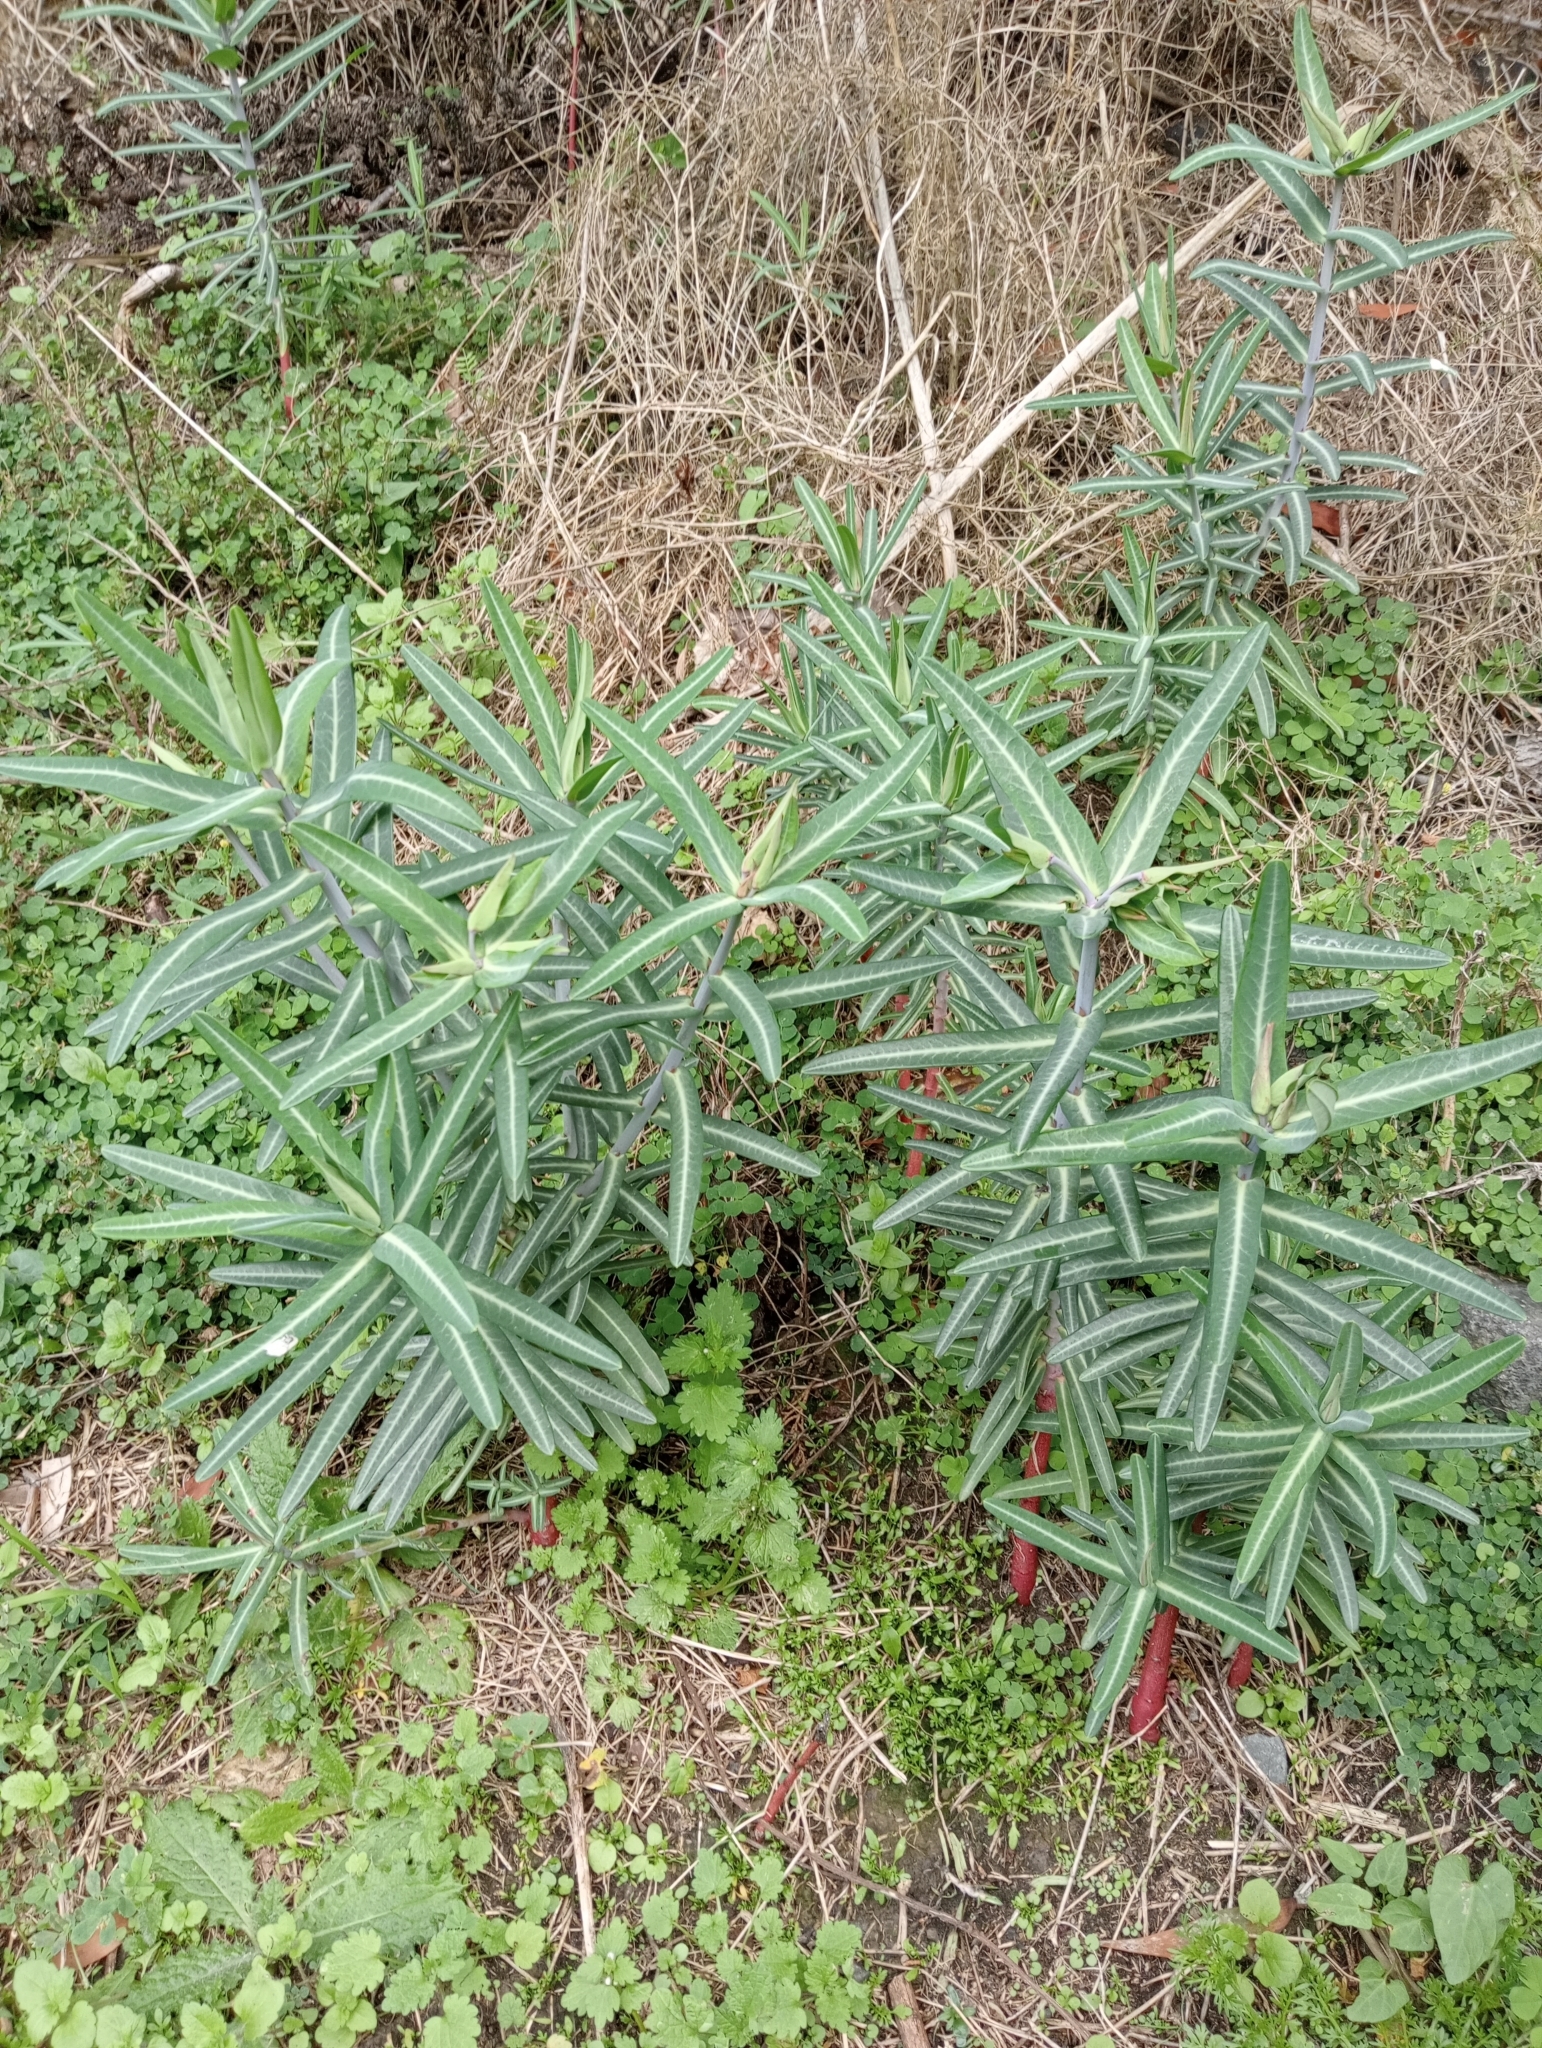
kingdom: Plantae
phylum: Tracheophyta
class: Magnoliopsida
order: Malpighiales
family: Euphorbiaceae
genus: Euphorbia
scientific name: Euphorbia lathyris
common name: Caper spurge
